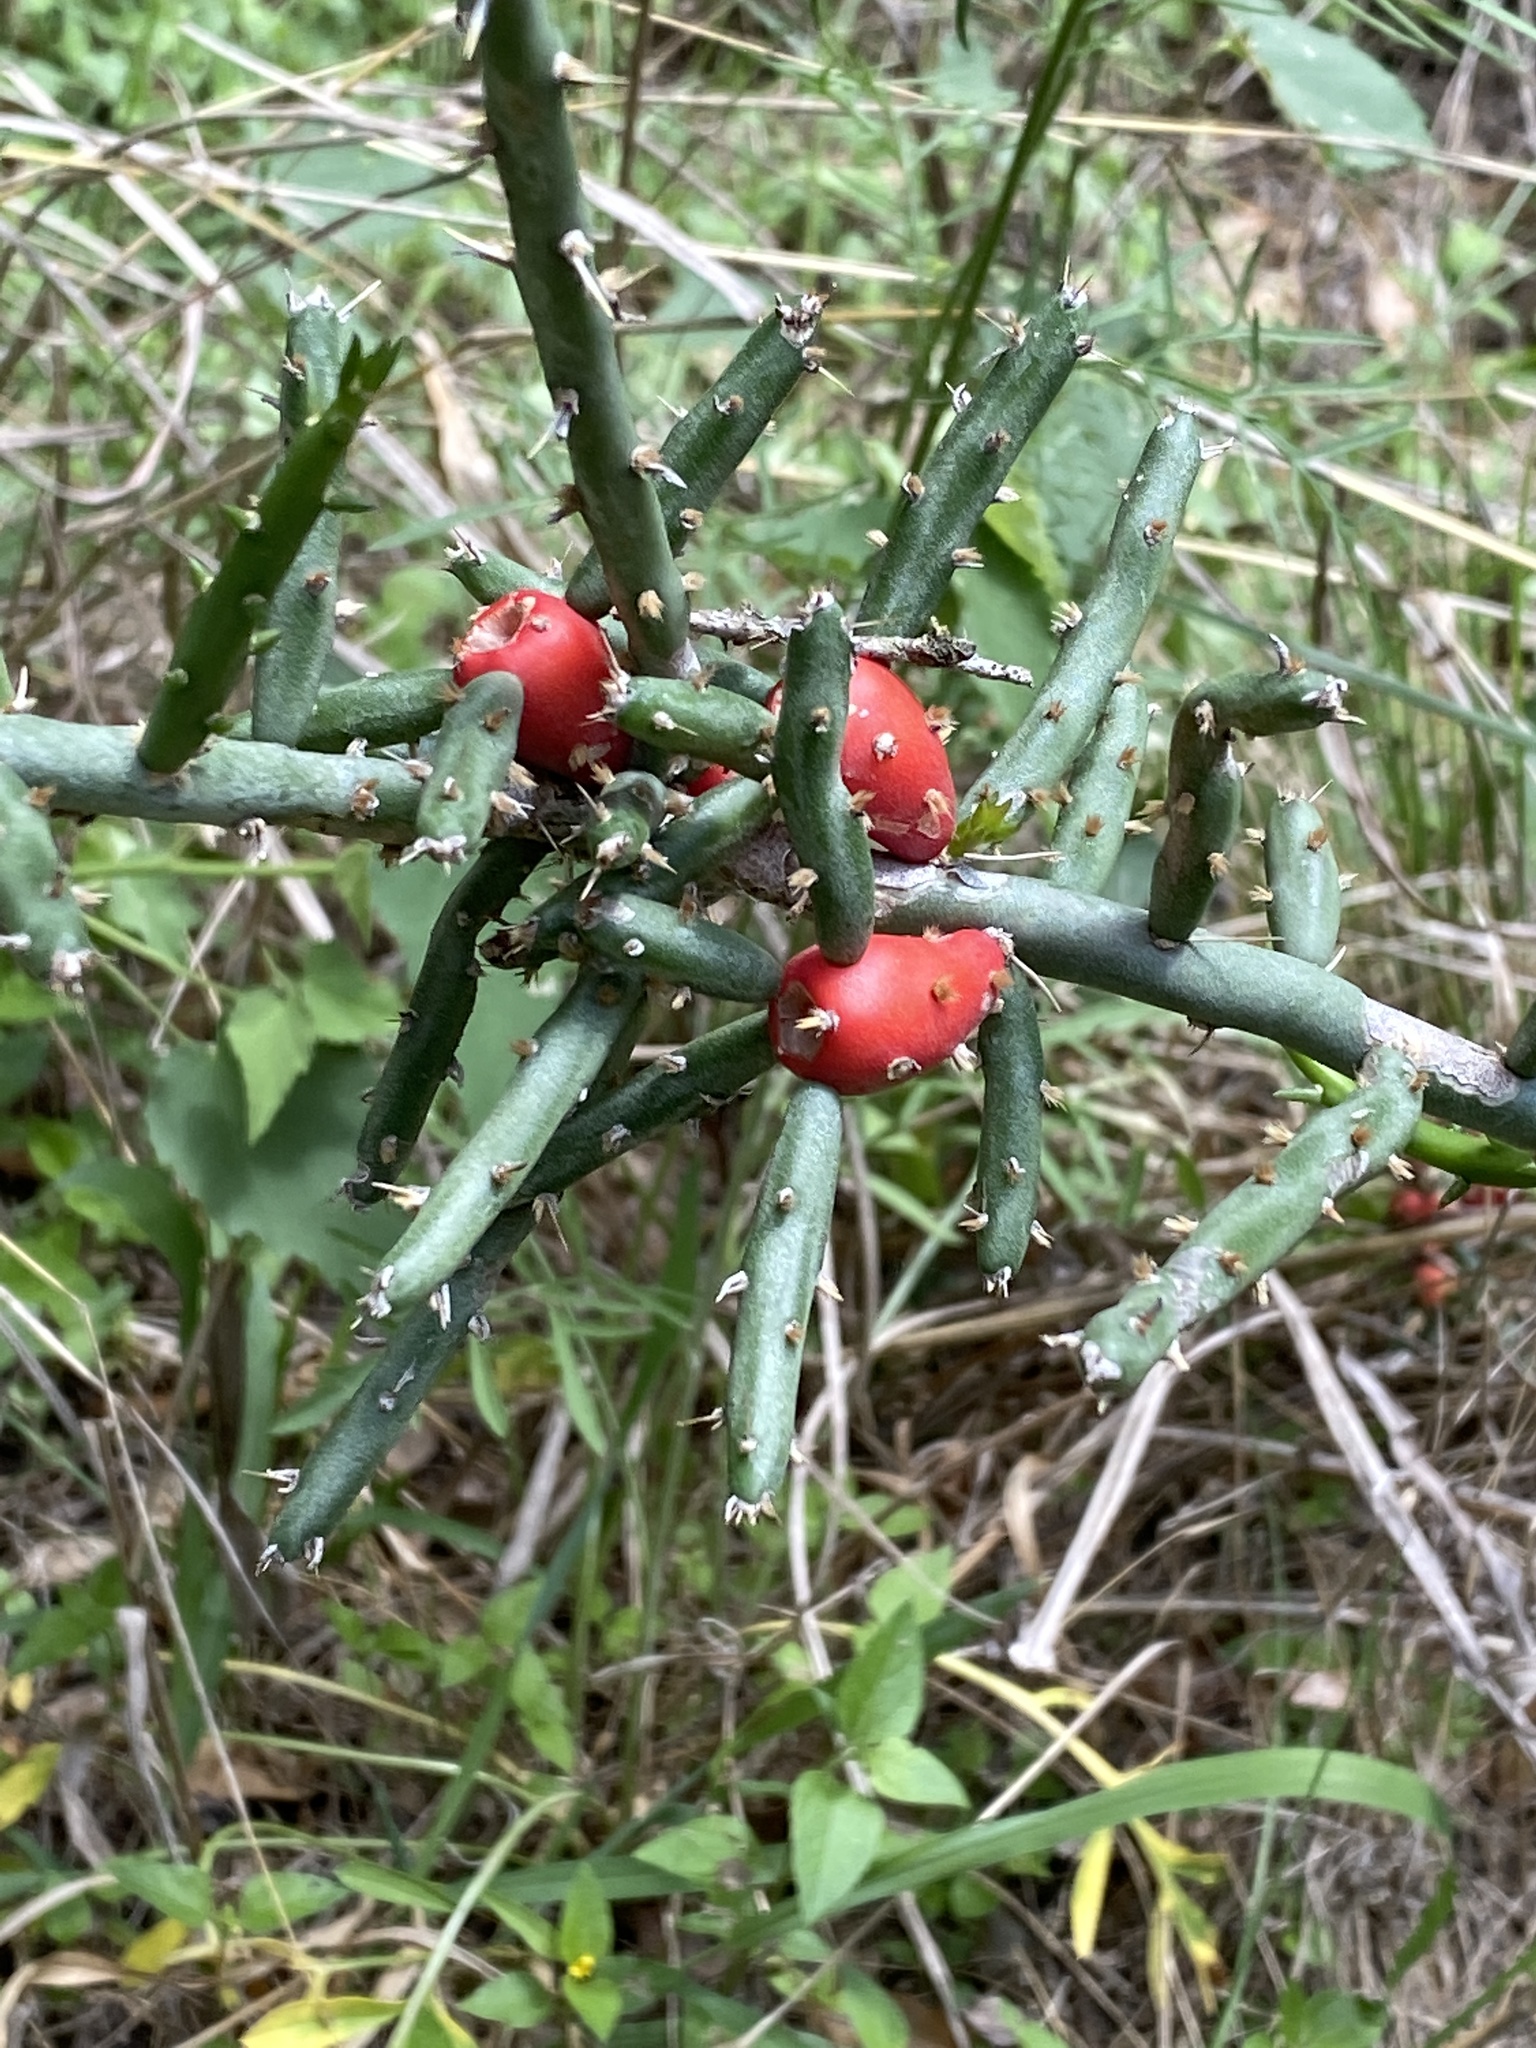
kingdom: Plantae
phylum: Tracheophyta
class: Magnoliopsida
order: Caryophyllales
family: Cactaceae
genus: Cylindropuntia
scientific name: Cylindropuntia leptocaulis
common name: Christmas cactus
